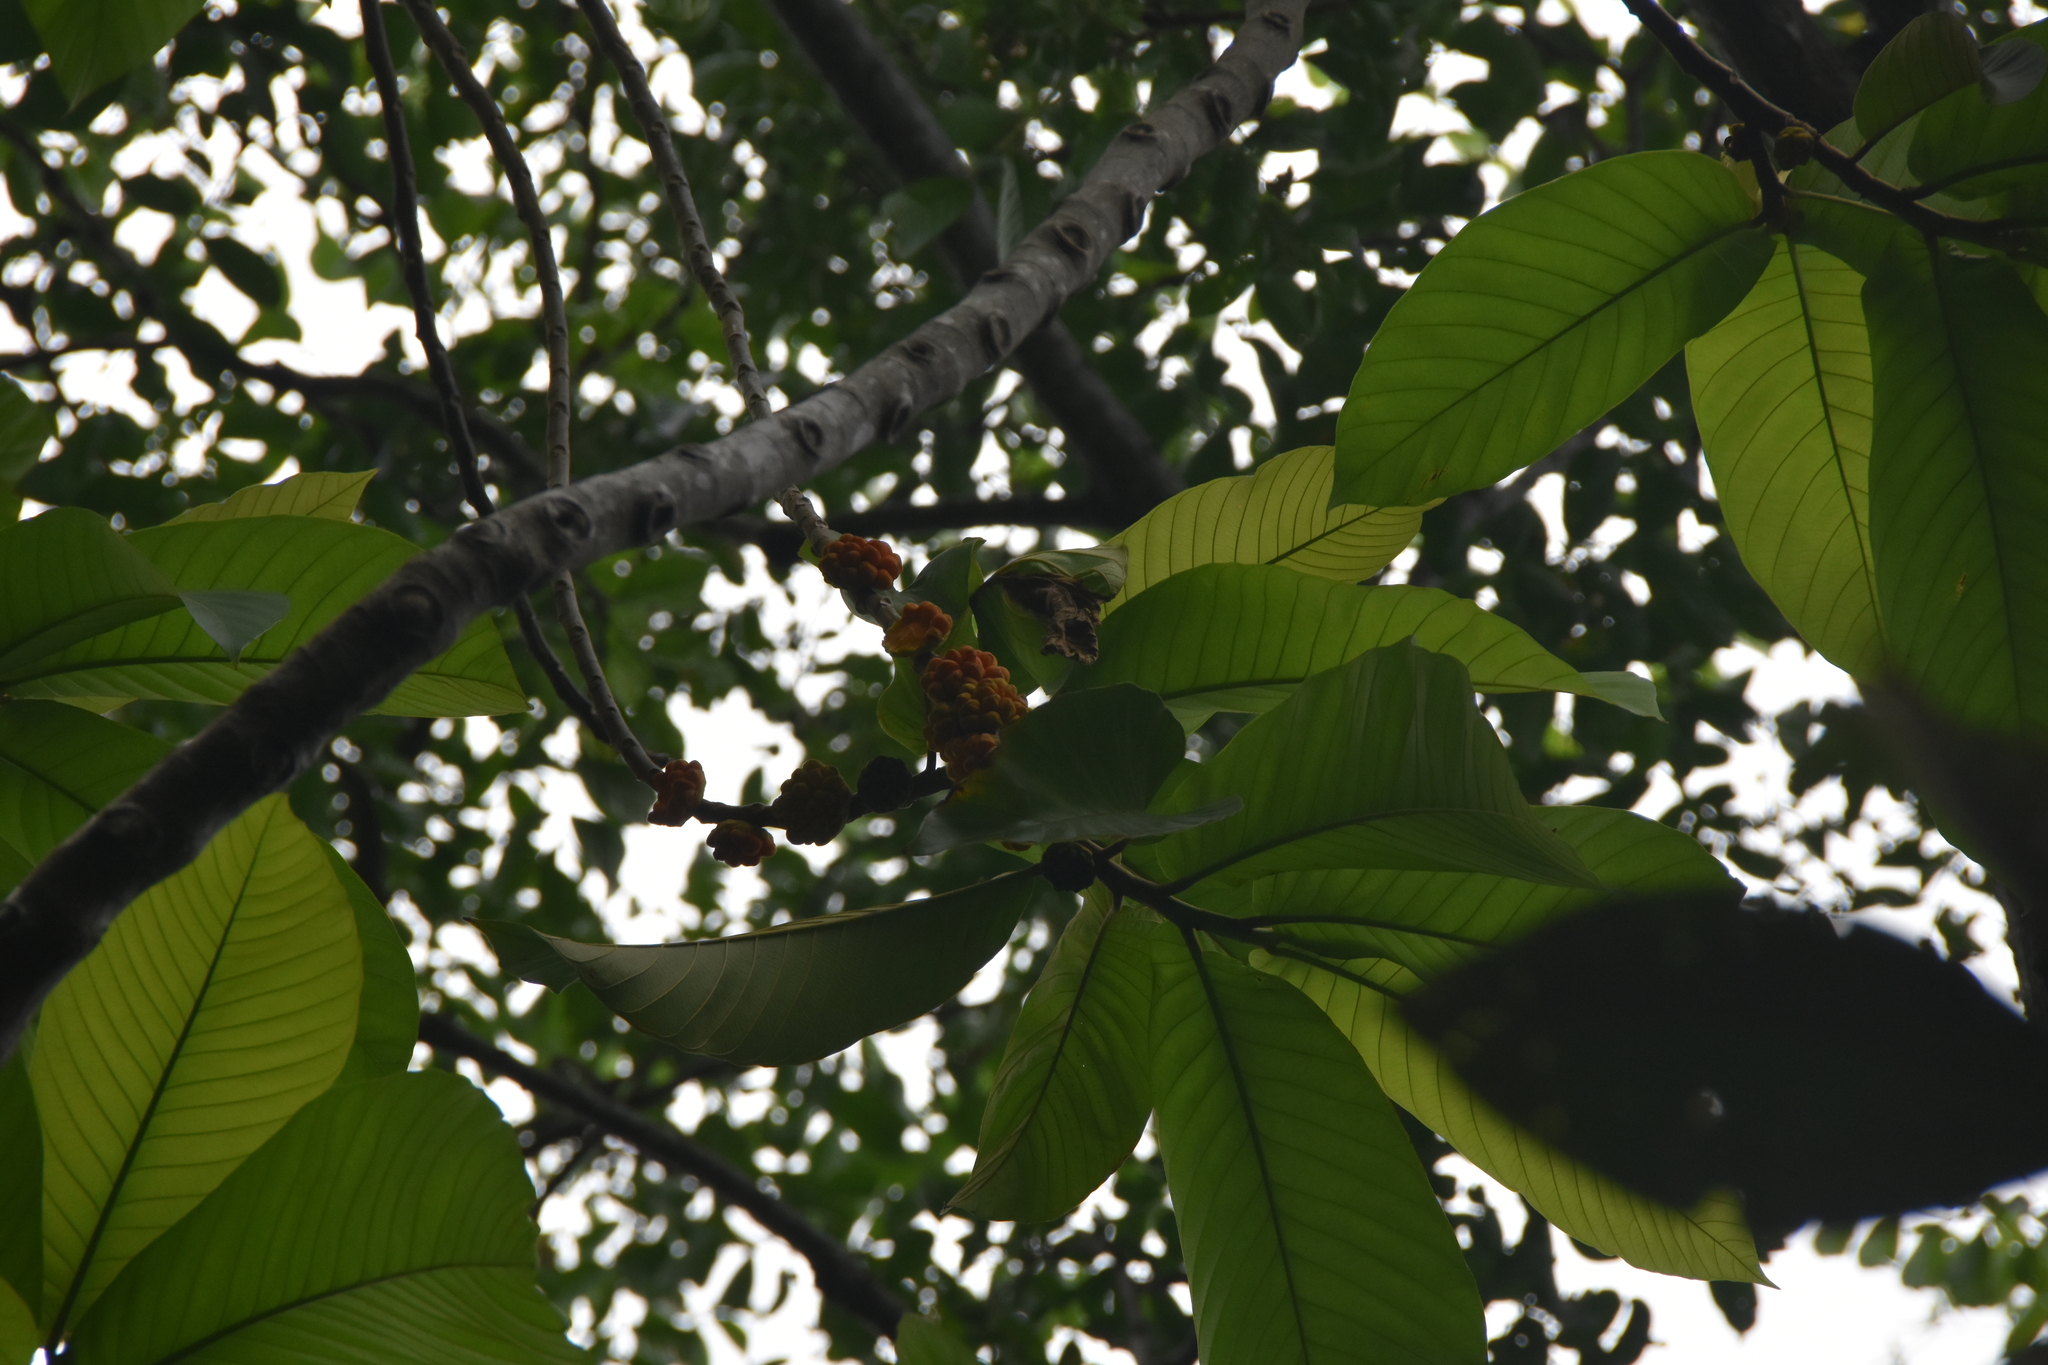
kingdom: Plantae
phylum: Tracheophyta
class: Magnoliopsida
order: Rosales
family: Moraceae
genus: Castilla
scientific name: Castilla tunu
